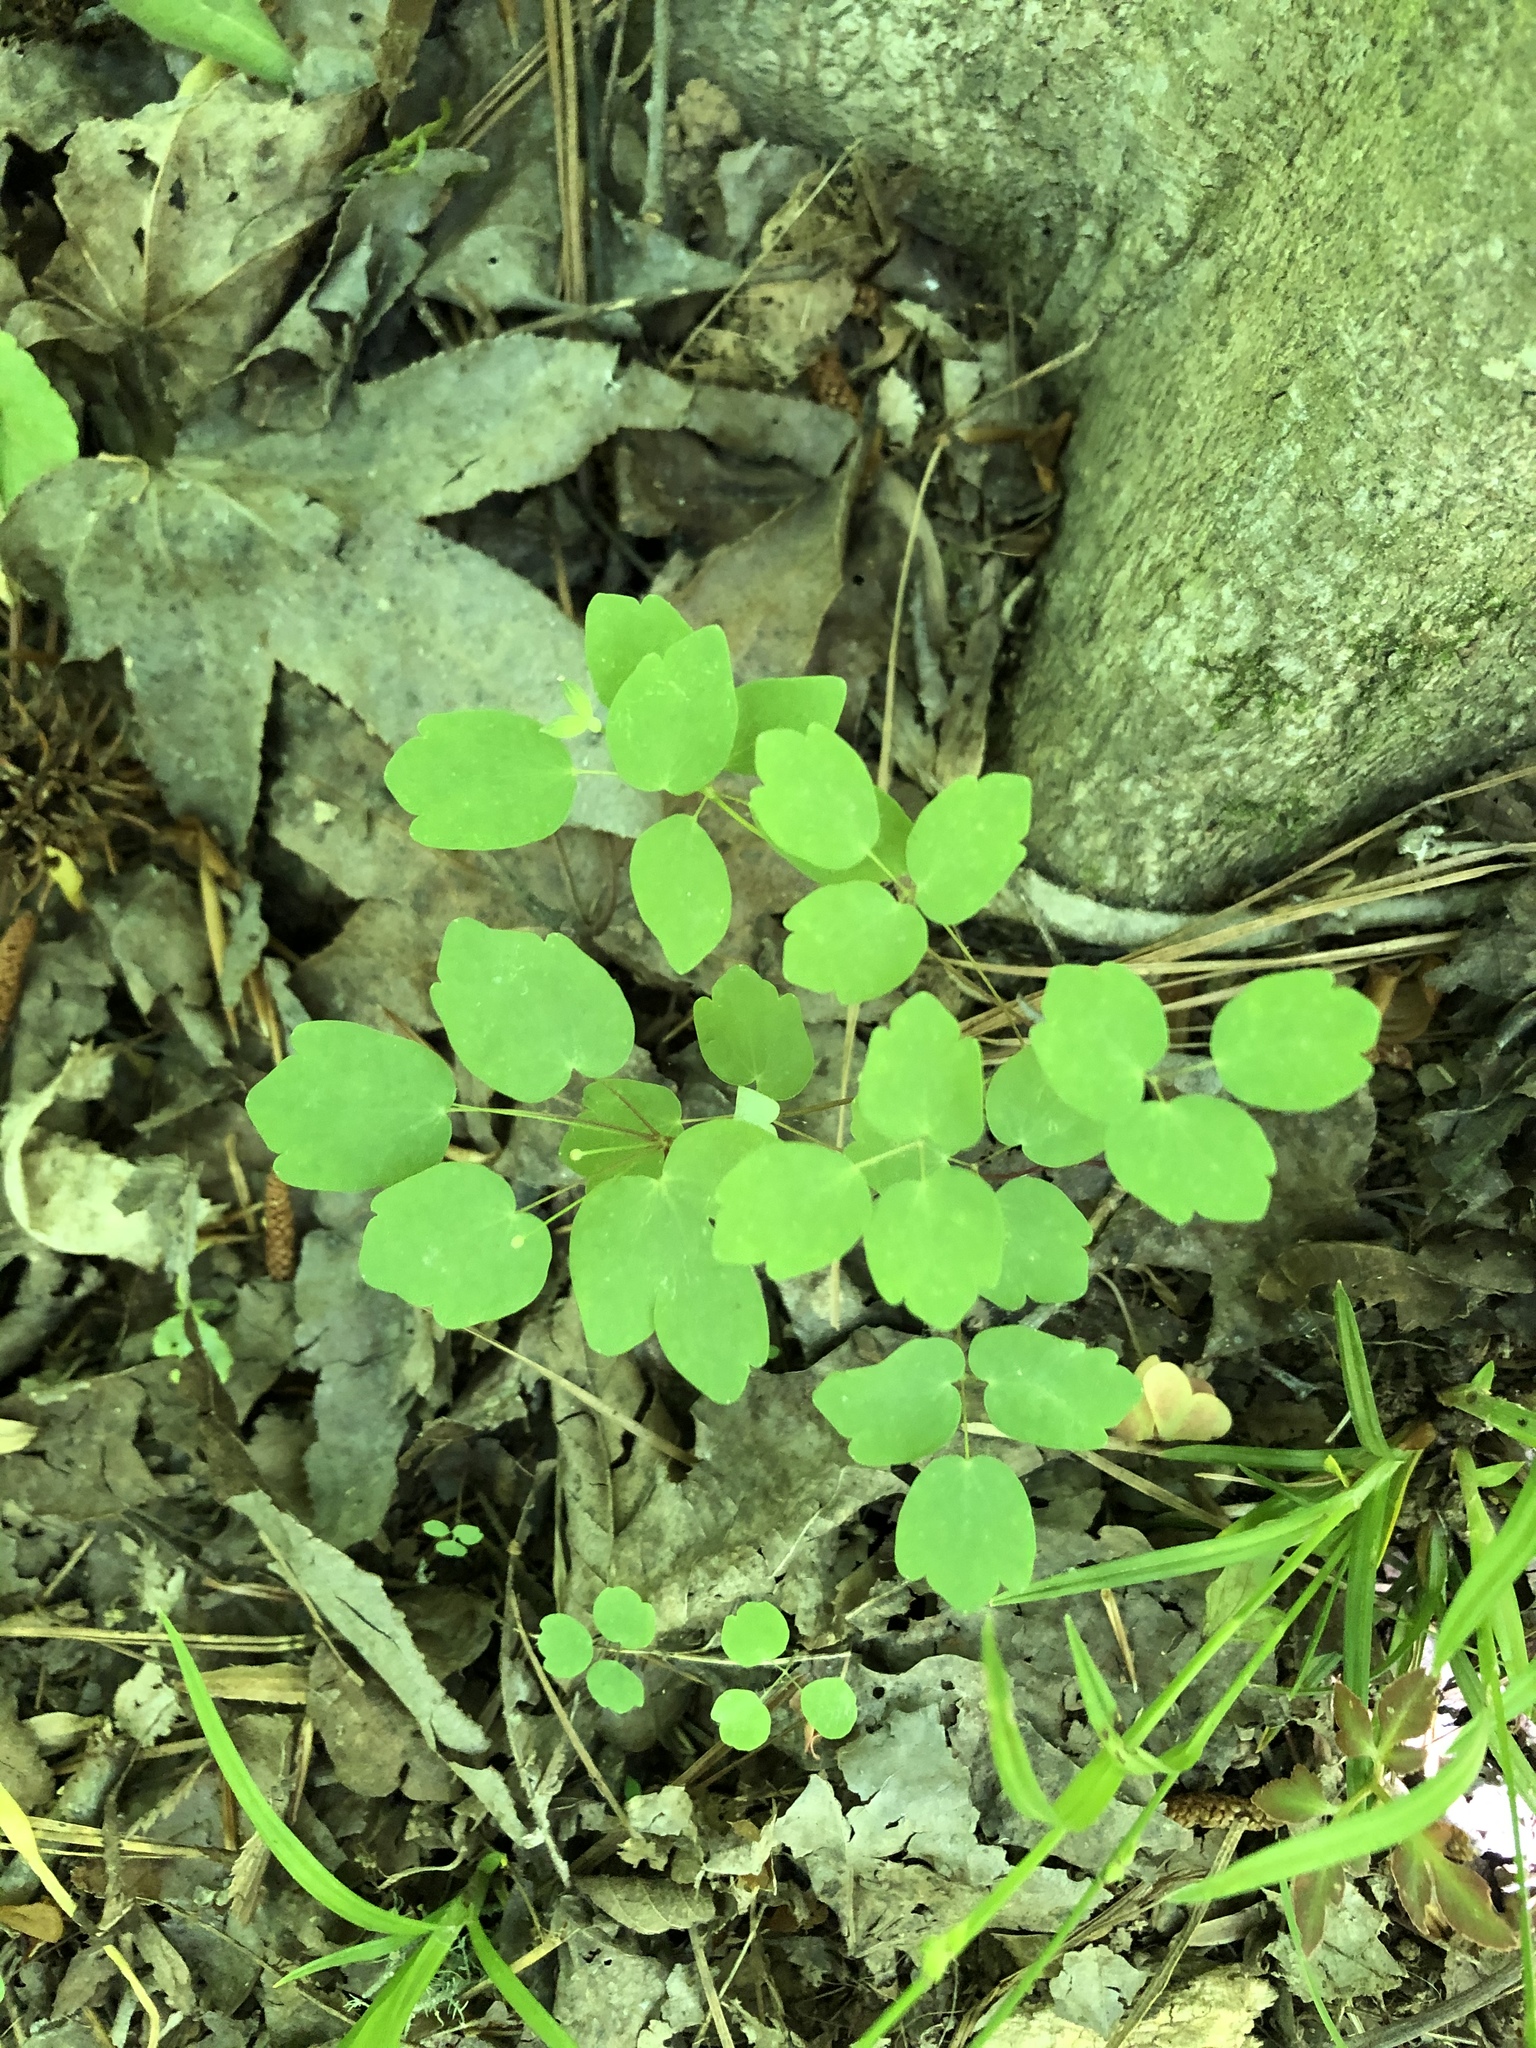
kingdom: Plantae
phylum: Tracheophyta
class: Magnoliopsida
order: Ranunculales
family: Ranunculaceae
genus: Thalictrum
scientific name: Thalictrum thalictroides
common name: Rue-anemone
